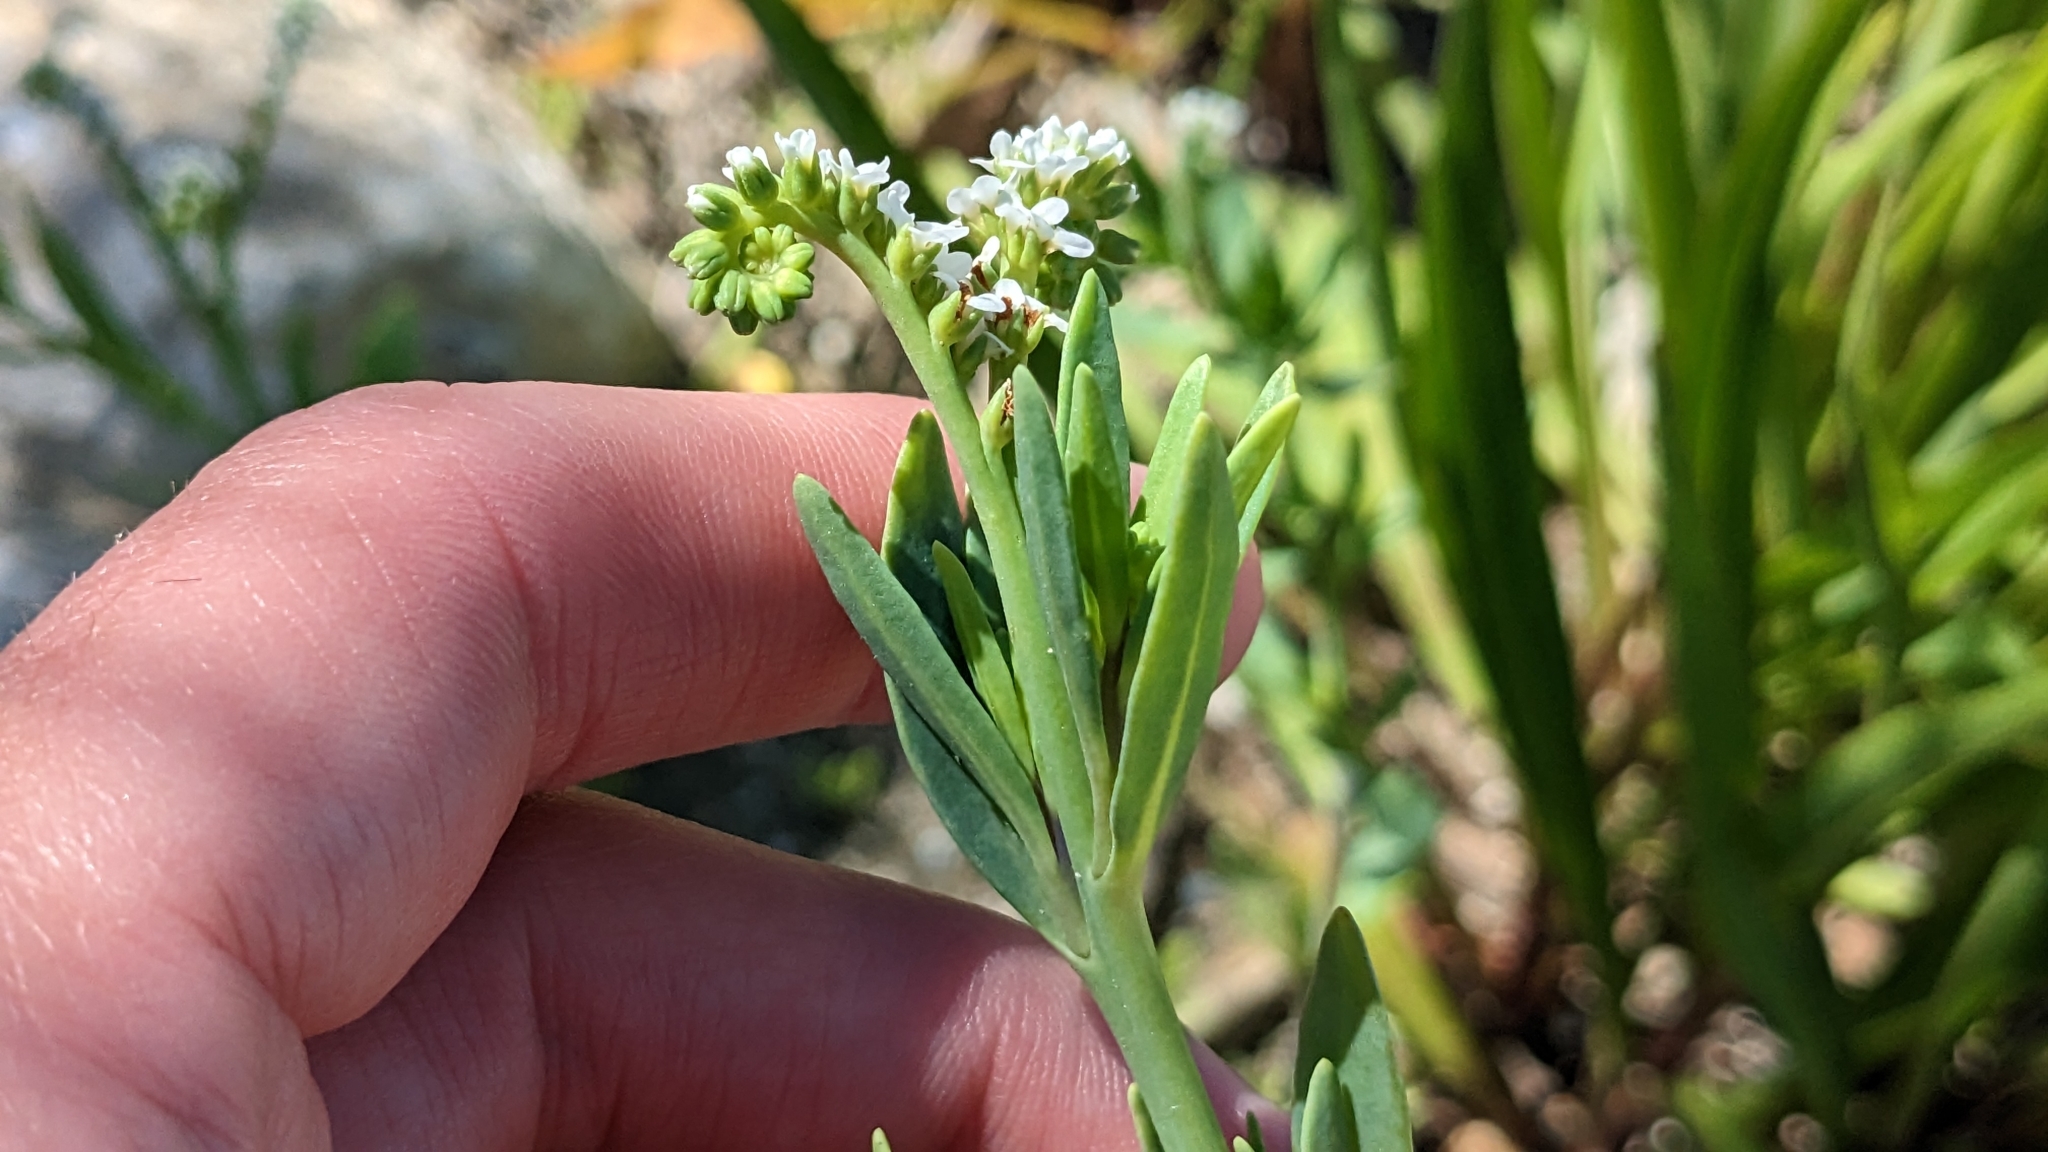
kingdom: Plantae
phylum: Tracheophyta
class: Magnoliopsida
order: Boraginales
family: Heliotropiaceae
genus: Heliotropium
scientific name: Heliotropium curassavicum
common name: Seaside heliotrope
